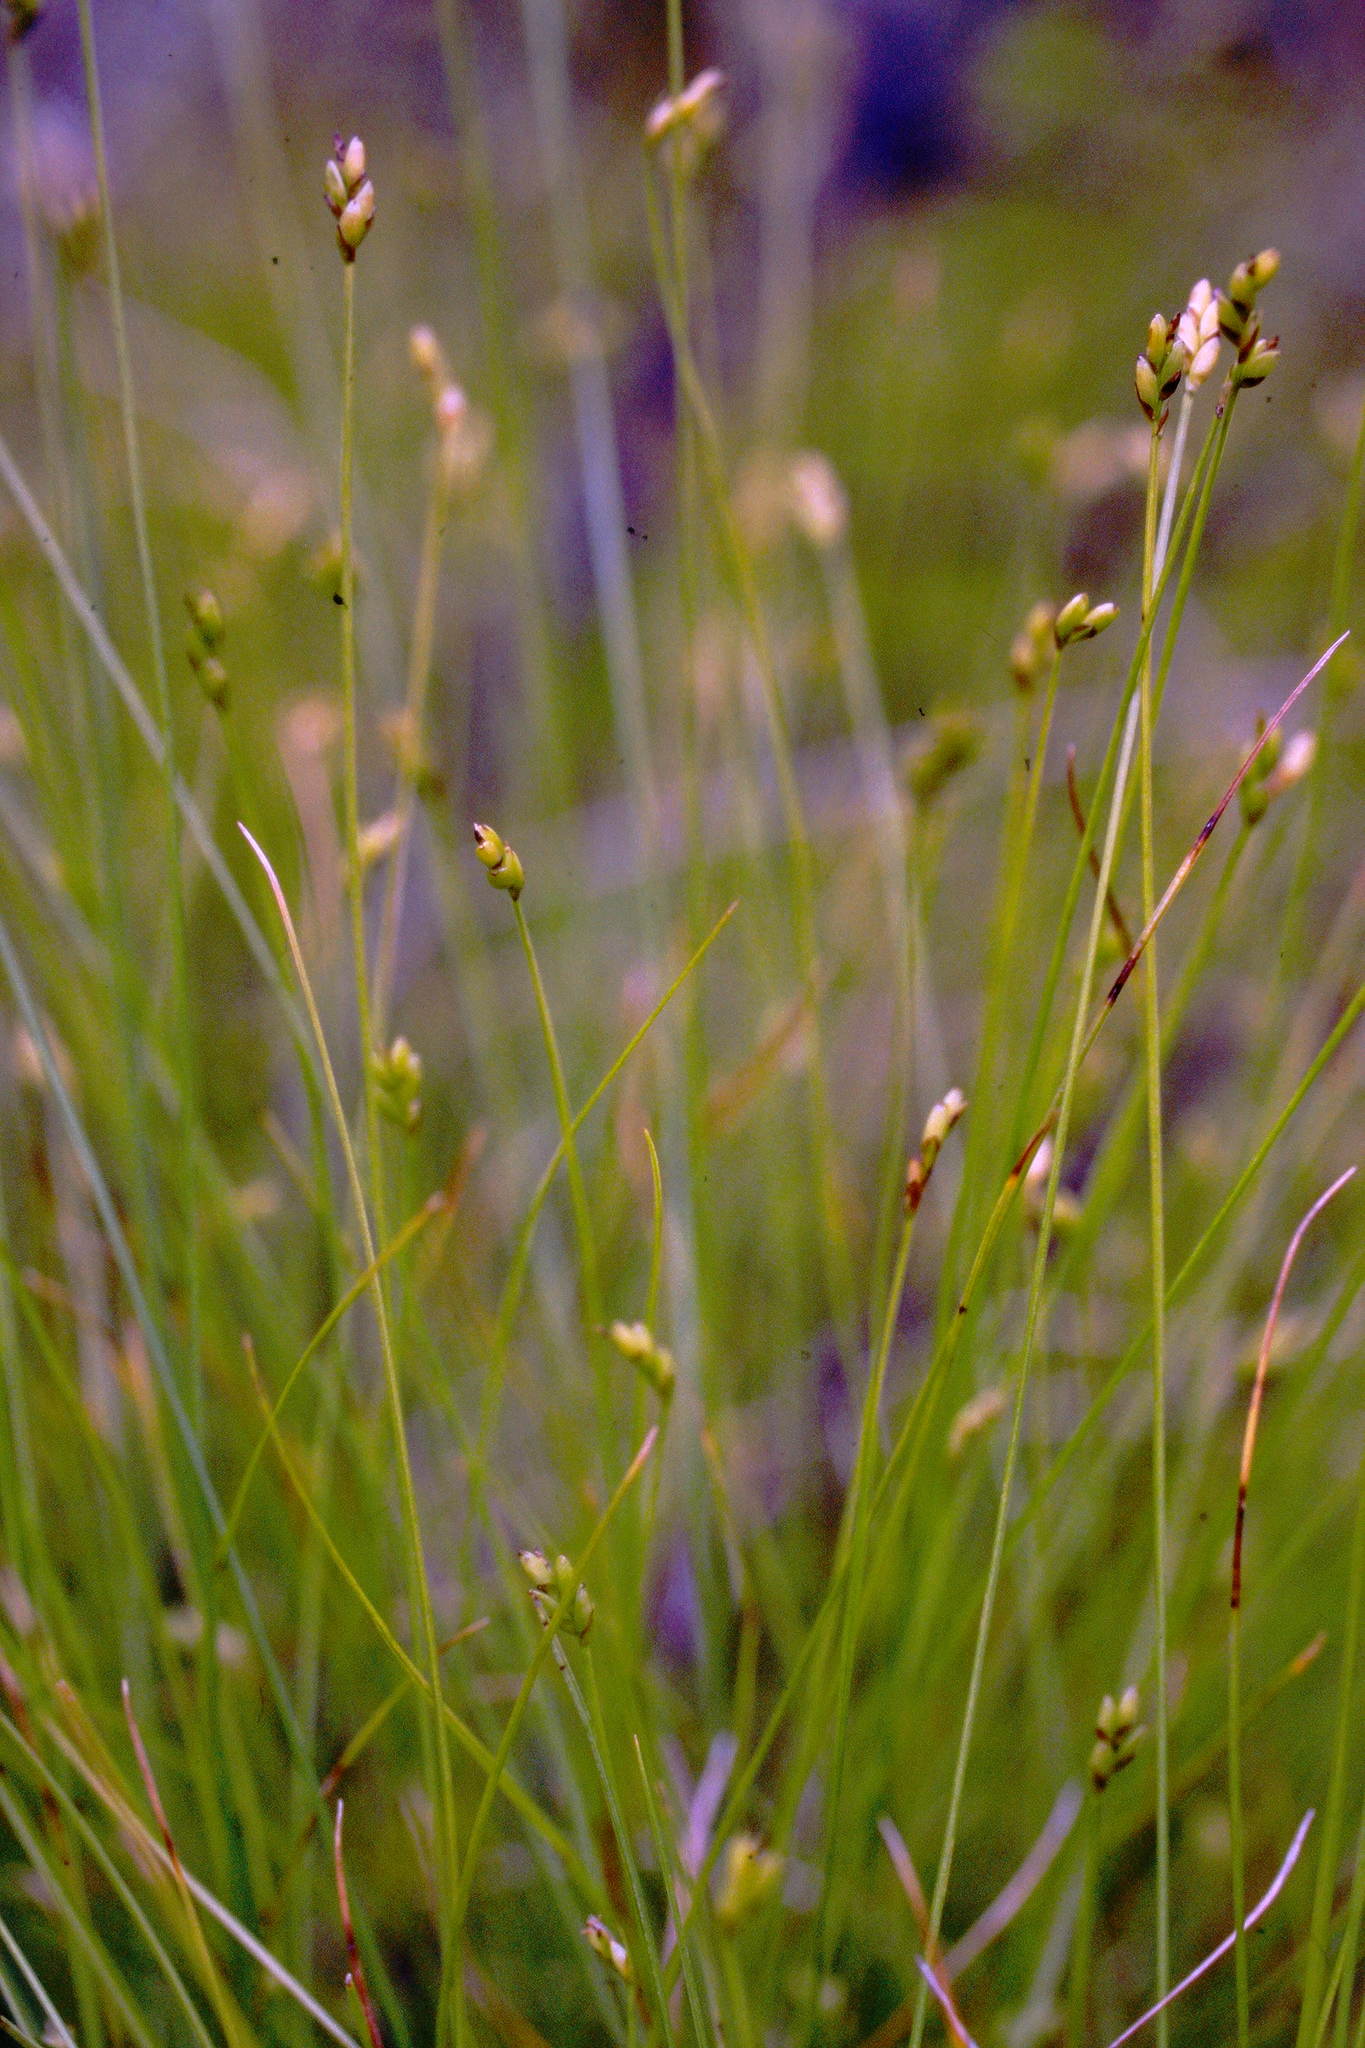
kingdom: Plantae
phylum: Tracheophyta
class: Liliopsida
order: Poales
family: Cyperaceae
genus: Carex
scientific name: Carex leptalea
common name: Bristly-stalked sedge
